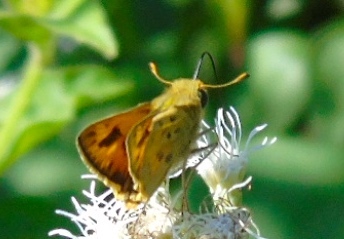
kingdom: Animalia
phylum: Arthropoda
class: Insecta
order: Lepidoptera
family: Hesperiidae
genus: Hylephila
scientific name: Hylephila phyleus
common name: Fiery skipper
